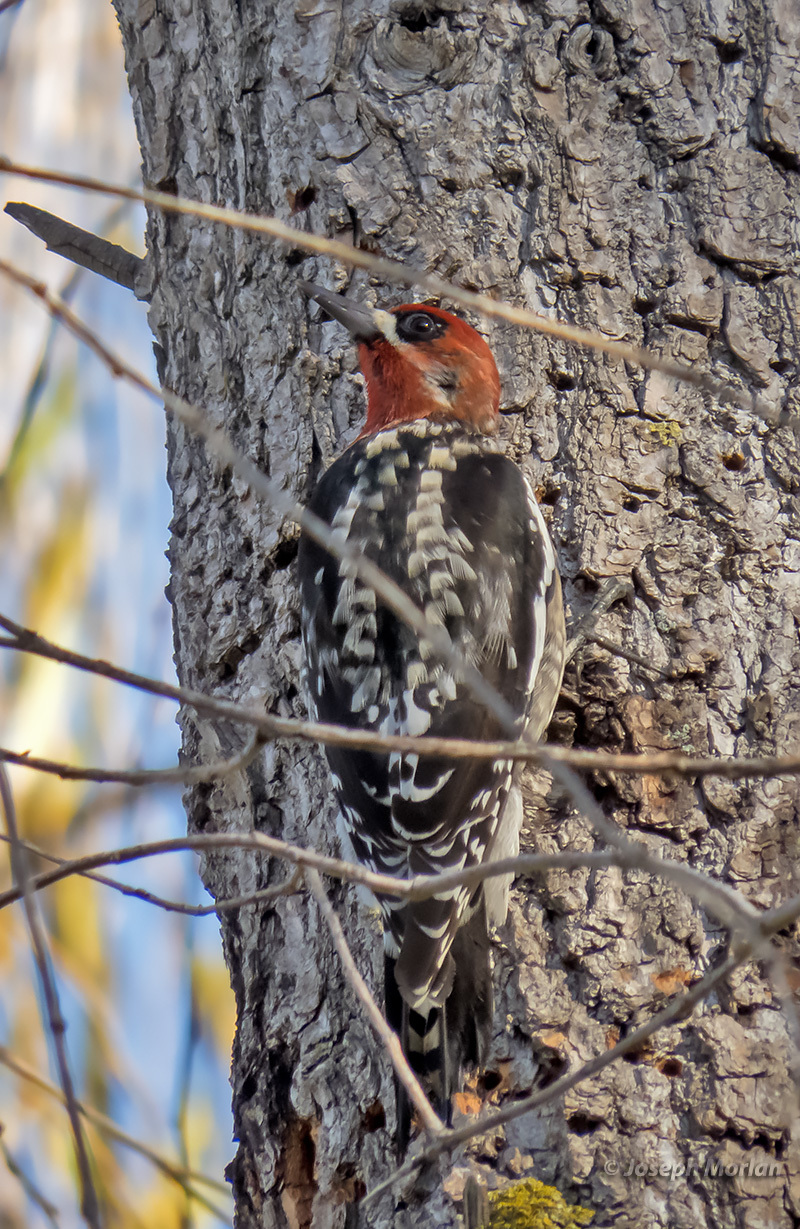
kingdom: Animalia
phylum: Chordata
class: Aves
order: Piciformes
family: Picidae
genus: Sphyrapicus
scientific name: Sphyrapicus ruber
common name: Red-breasted sapsucker
